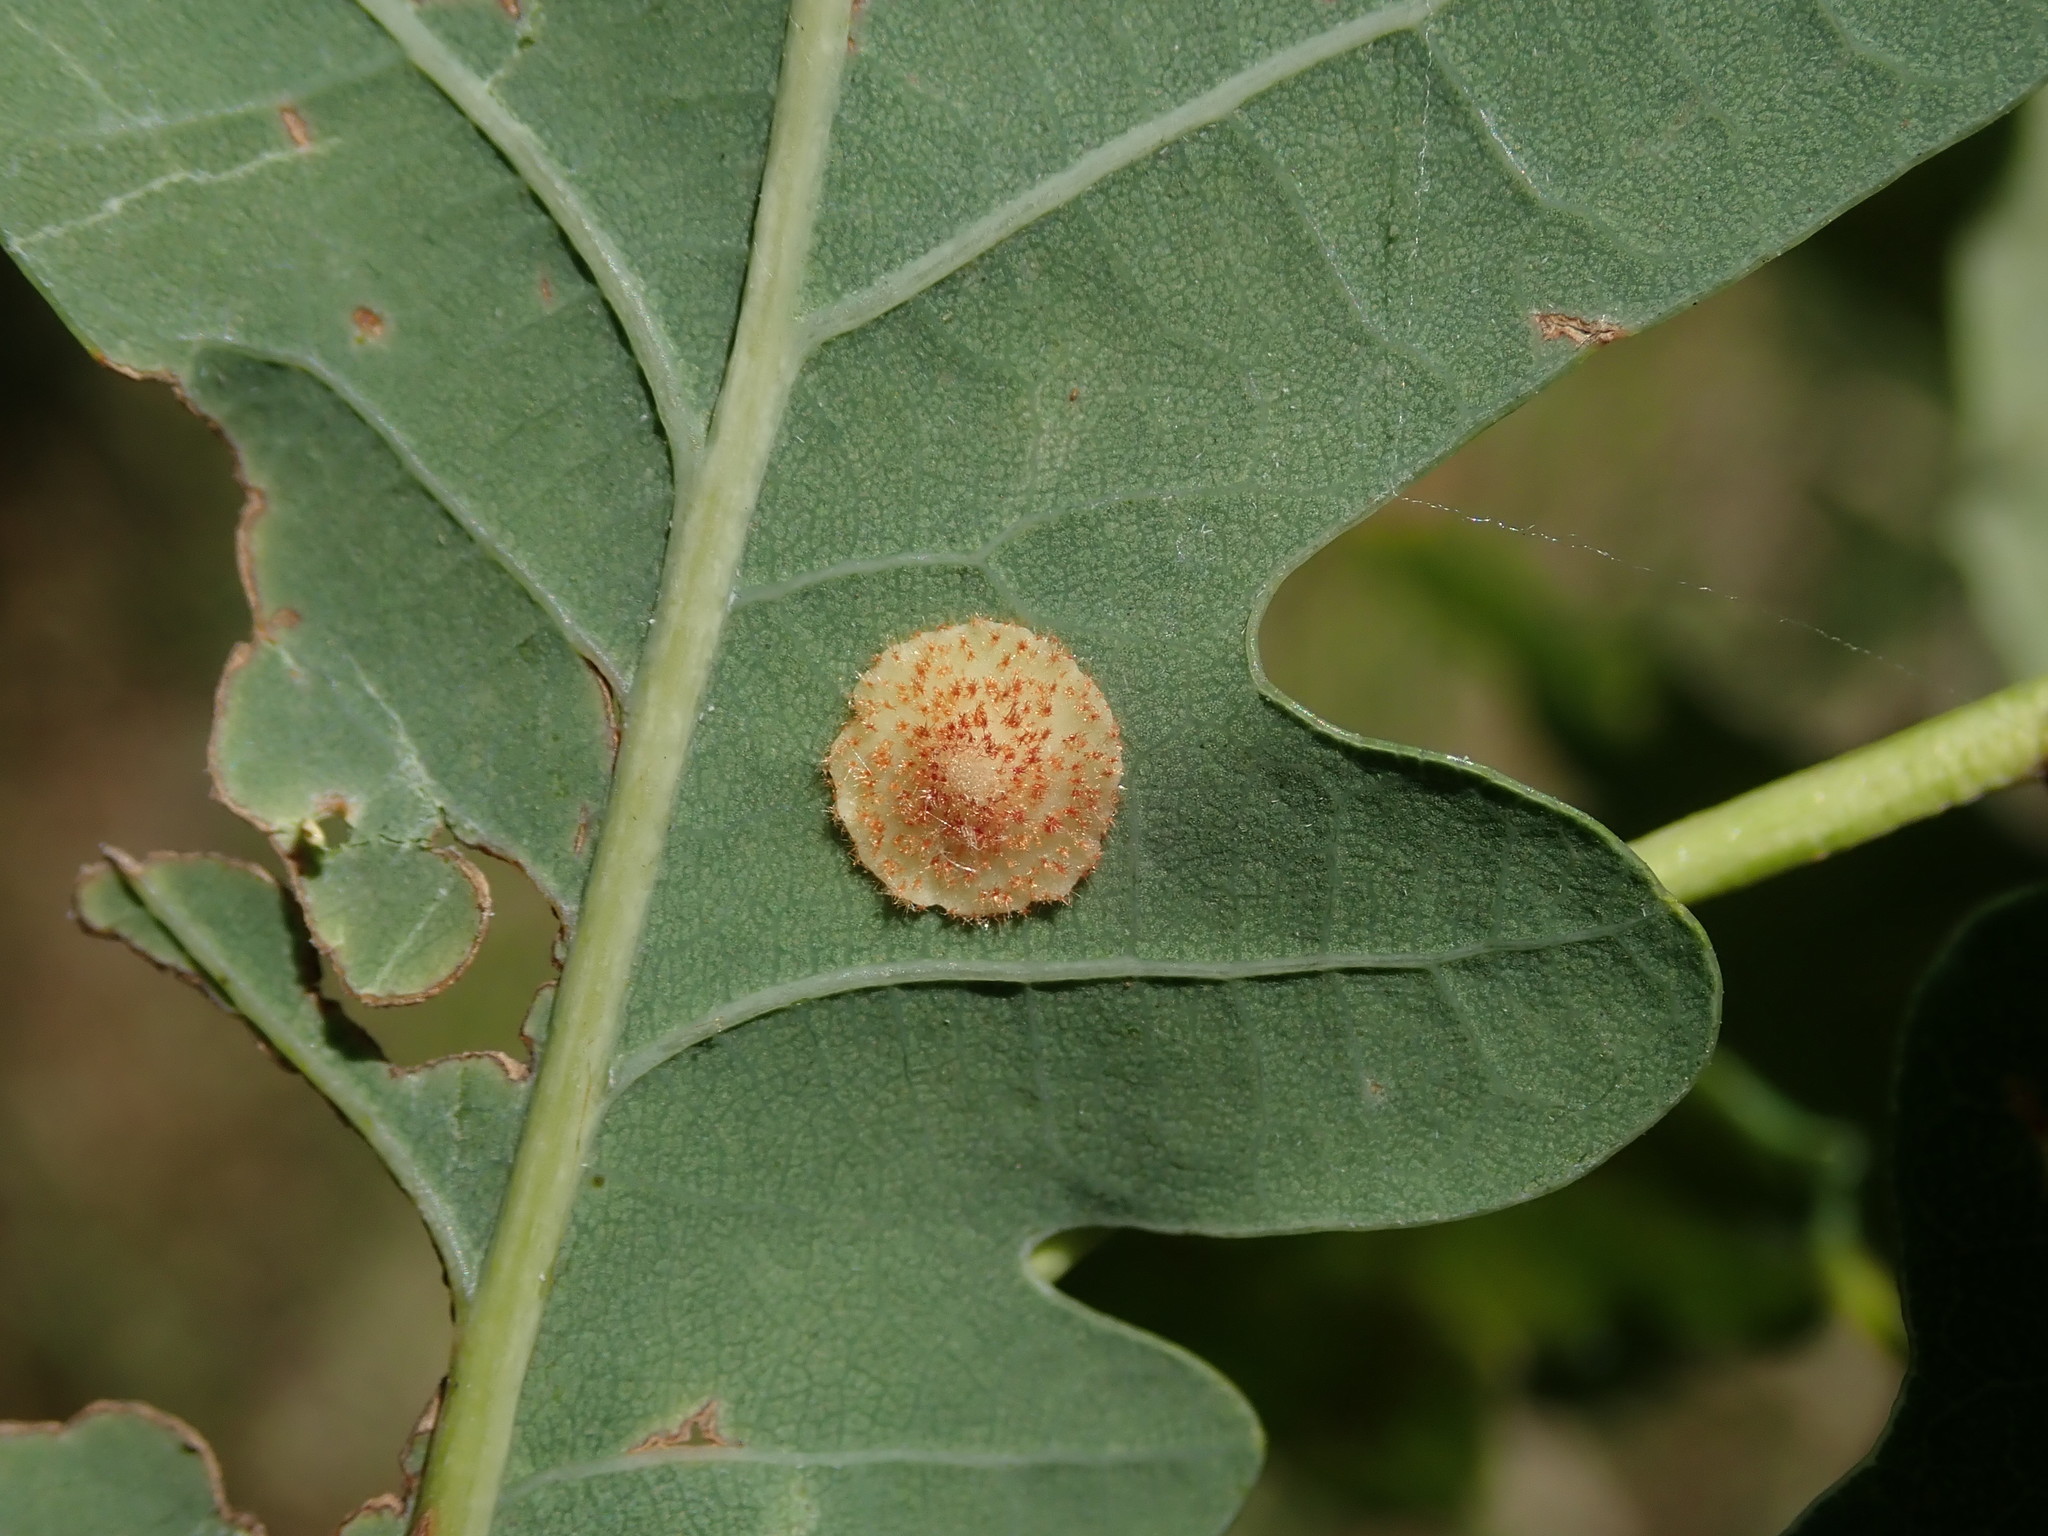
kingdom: Animalia
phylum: Arthropoda
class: Insecta
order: Hymenoptera
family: Cynipidae
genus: Neuroterus
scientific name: Neuroterus quercusbaccarum
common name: Common spangle gall
